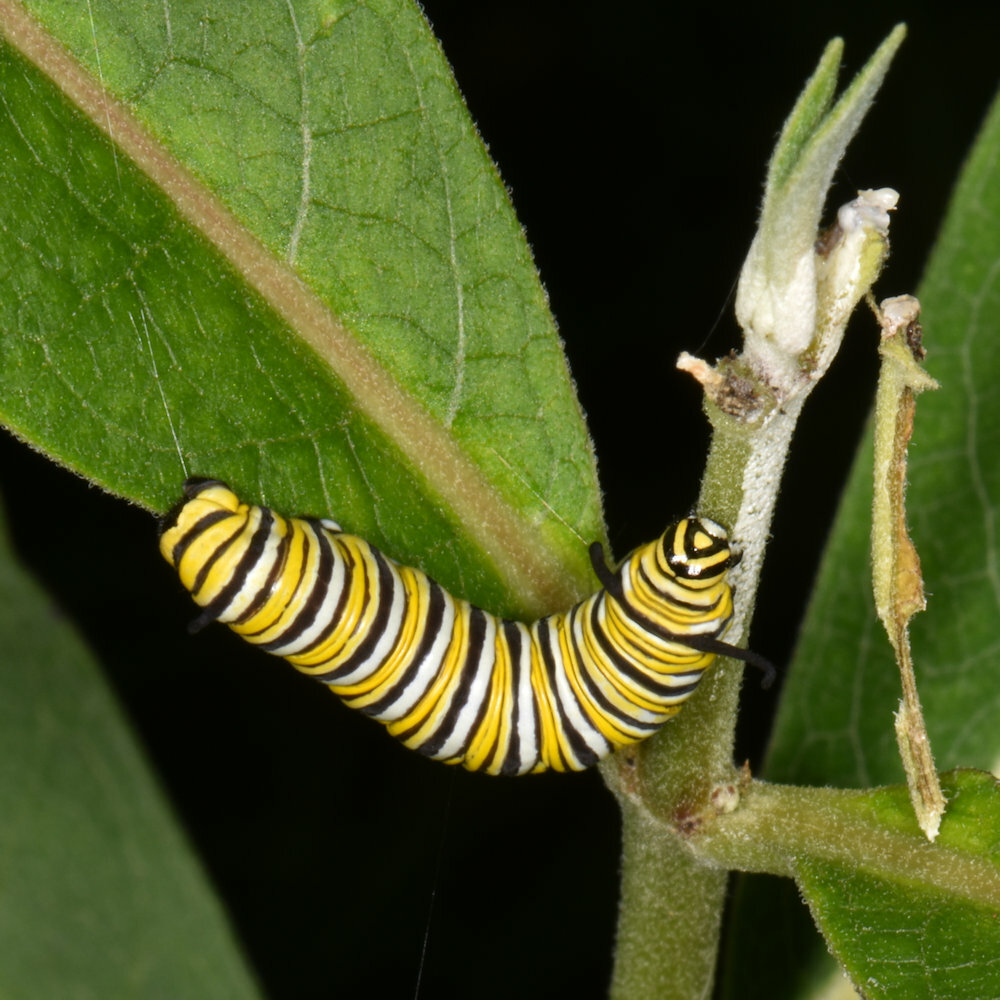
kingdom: Animalia
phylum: Arthropoda
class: Insecta
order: Lepidoptera
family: Nymphalidae
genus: Danaus
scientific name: Danaus plexippus
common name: Monarch
